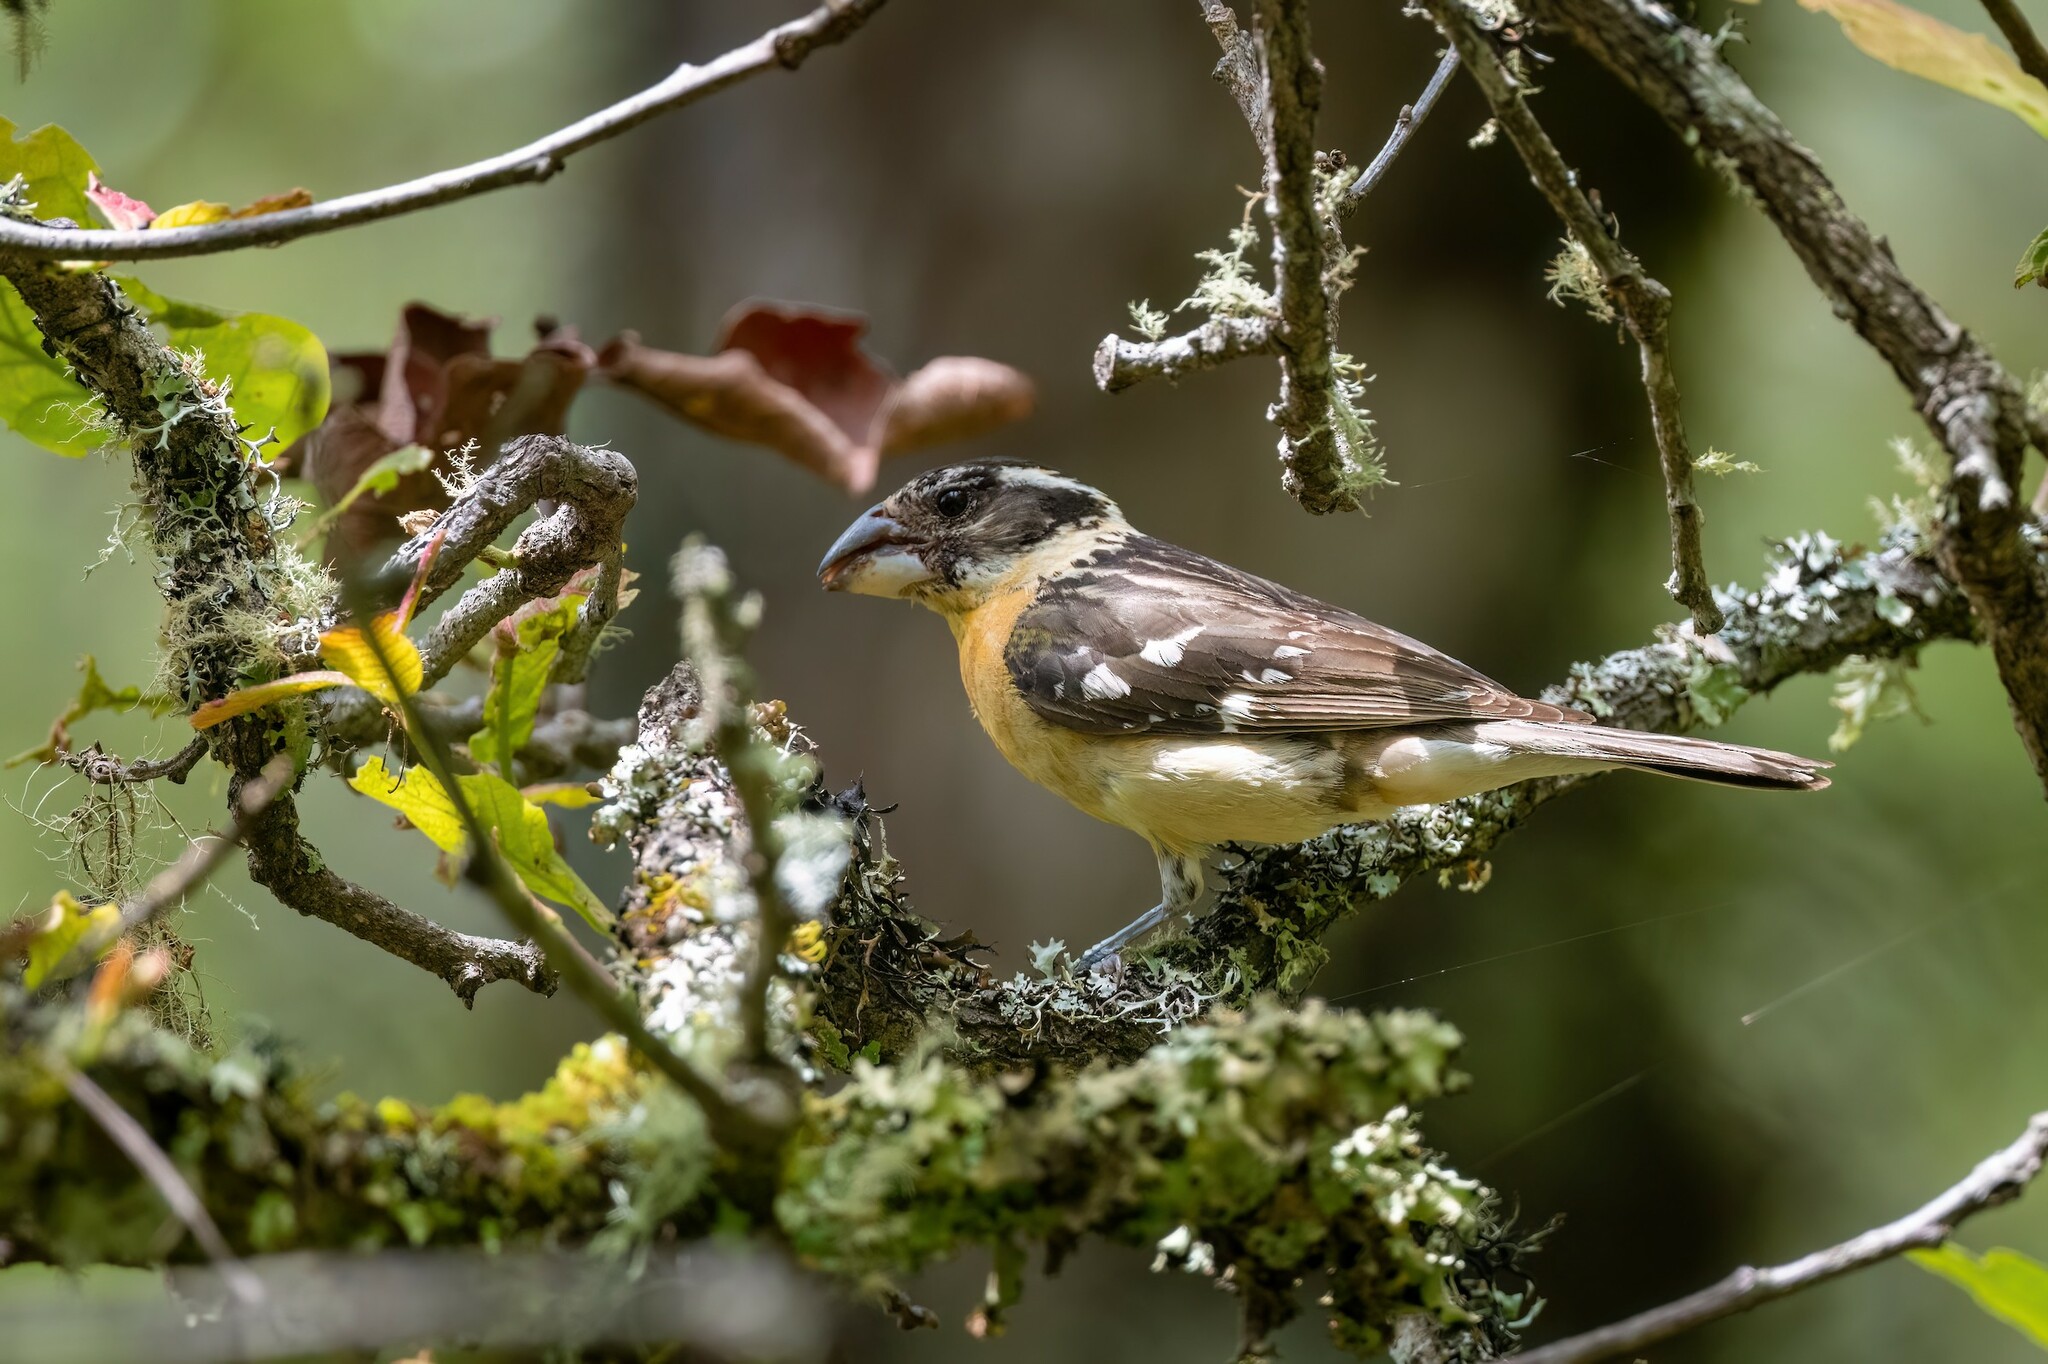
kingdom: Animalia
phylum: Chordata
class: Aves
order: Passeriformes
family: Cardinalidae
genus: Pheucticus
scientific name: Pheucticus melanocephalus
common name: Black-headed grosbeak
